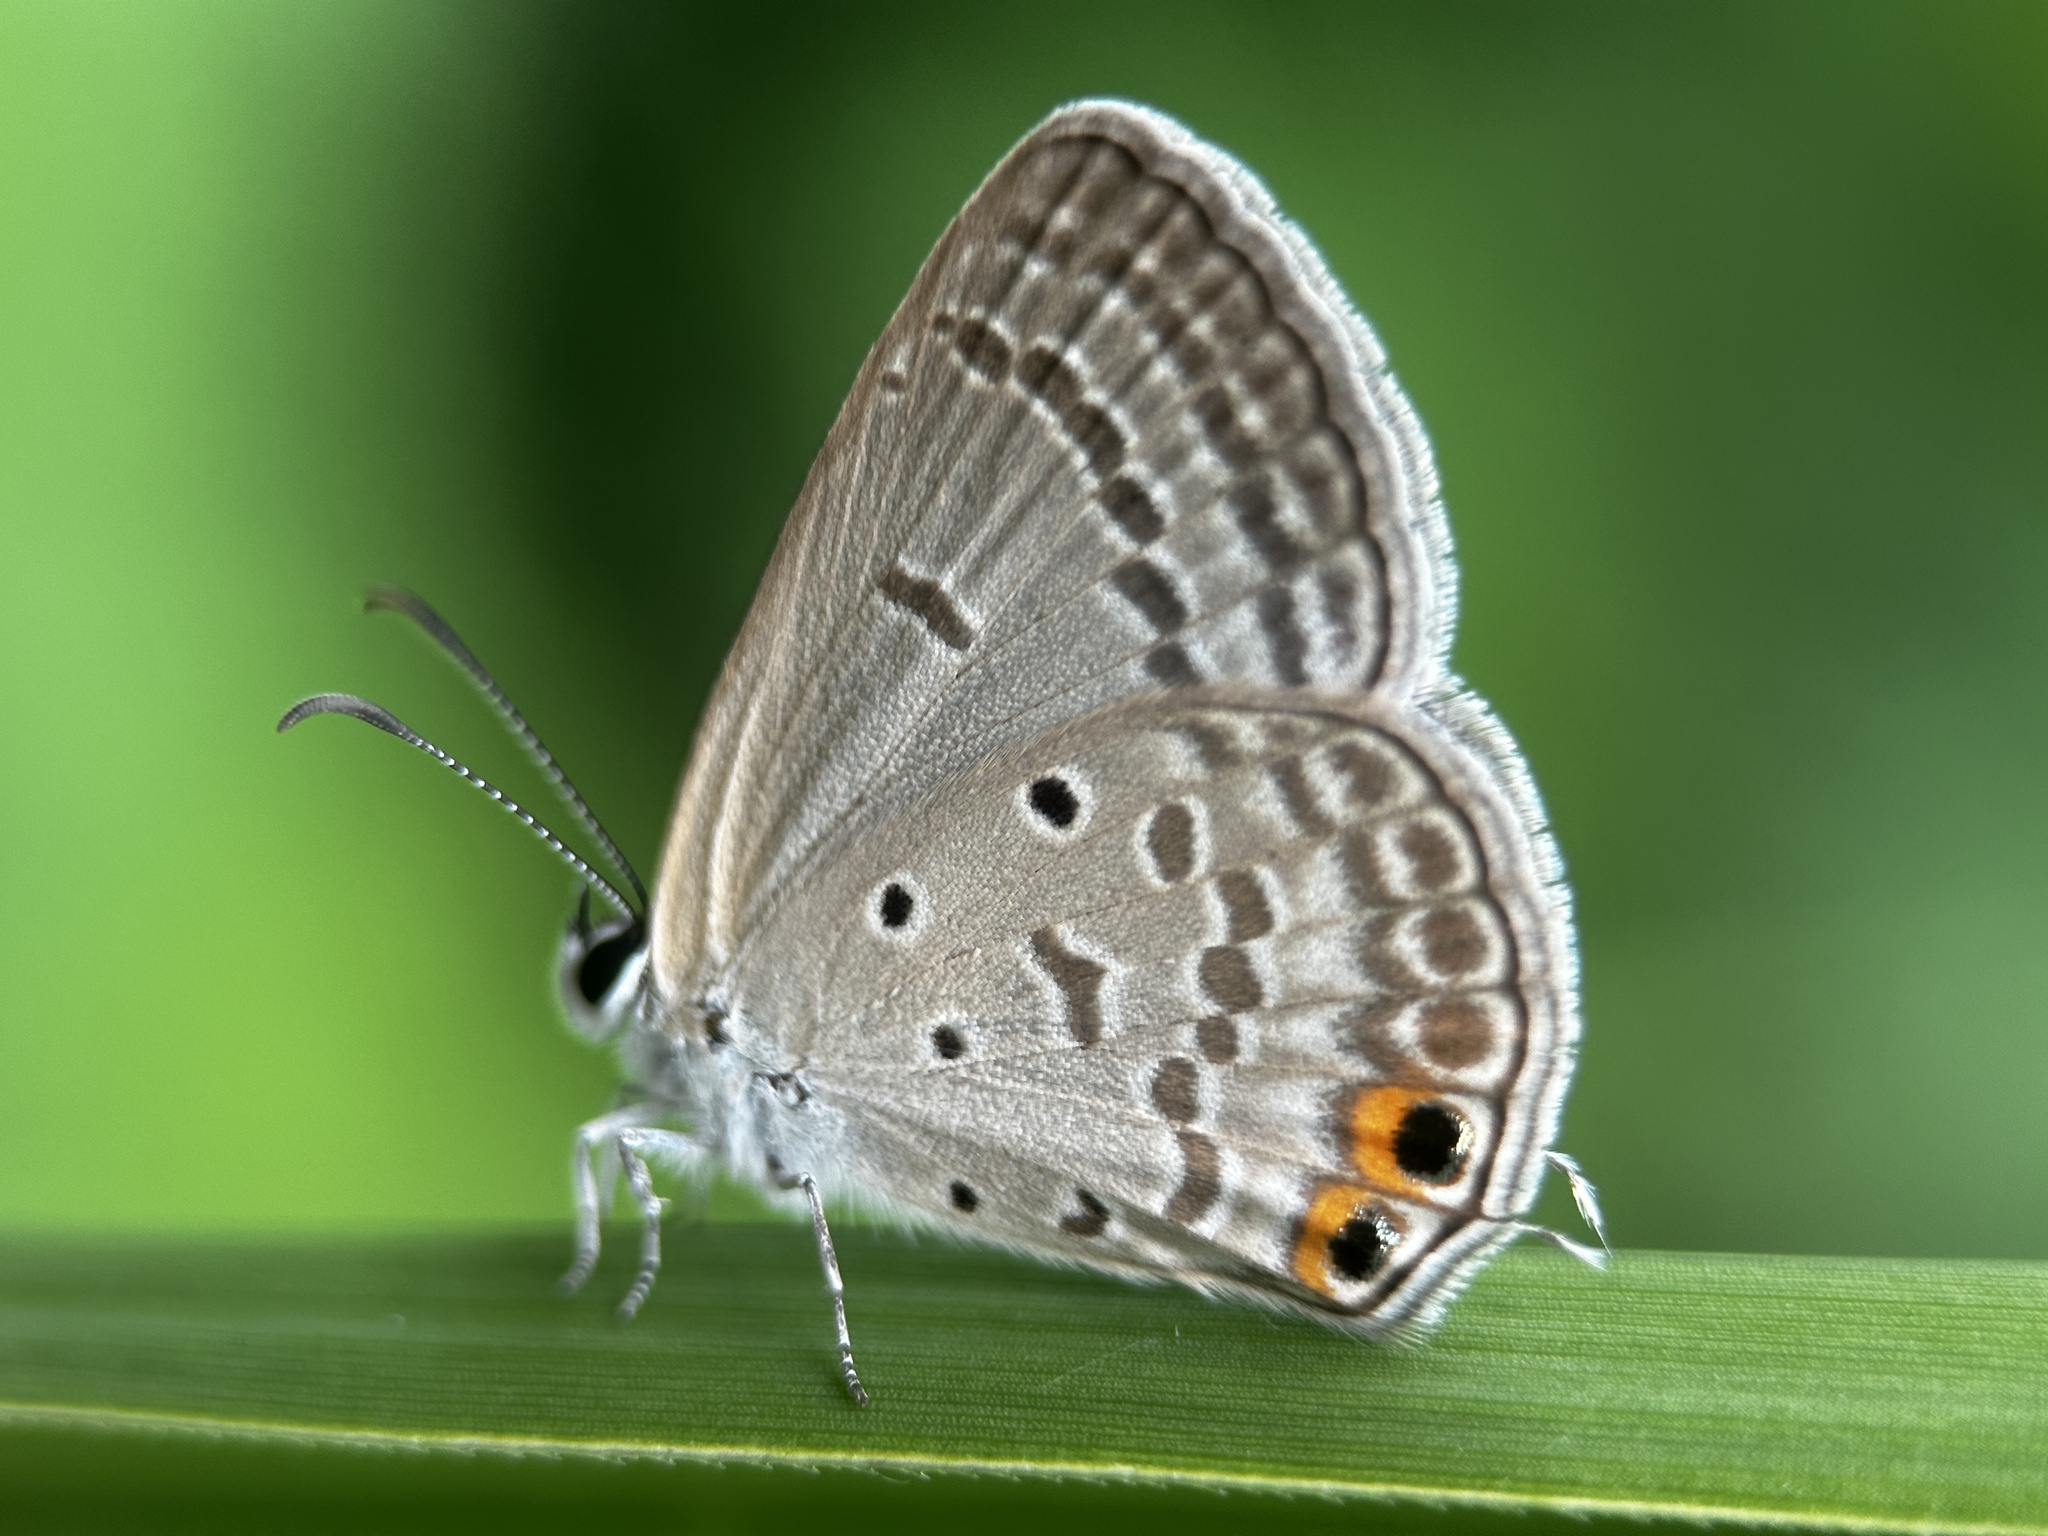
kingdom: Animalia
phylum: Arthropoda
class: Insecta
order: Lepidoptera
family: Lycaenidae
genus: Euchrysops
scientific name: Euchrysops cnejus
